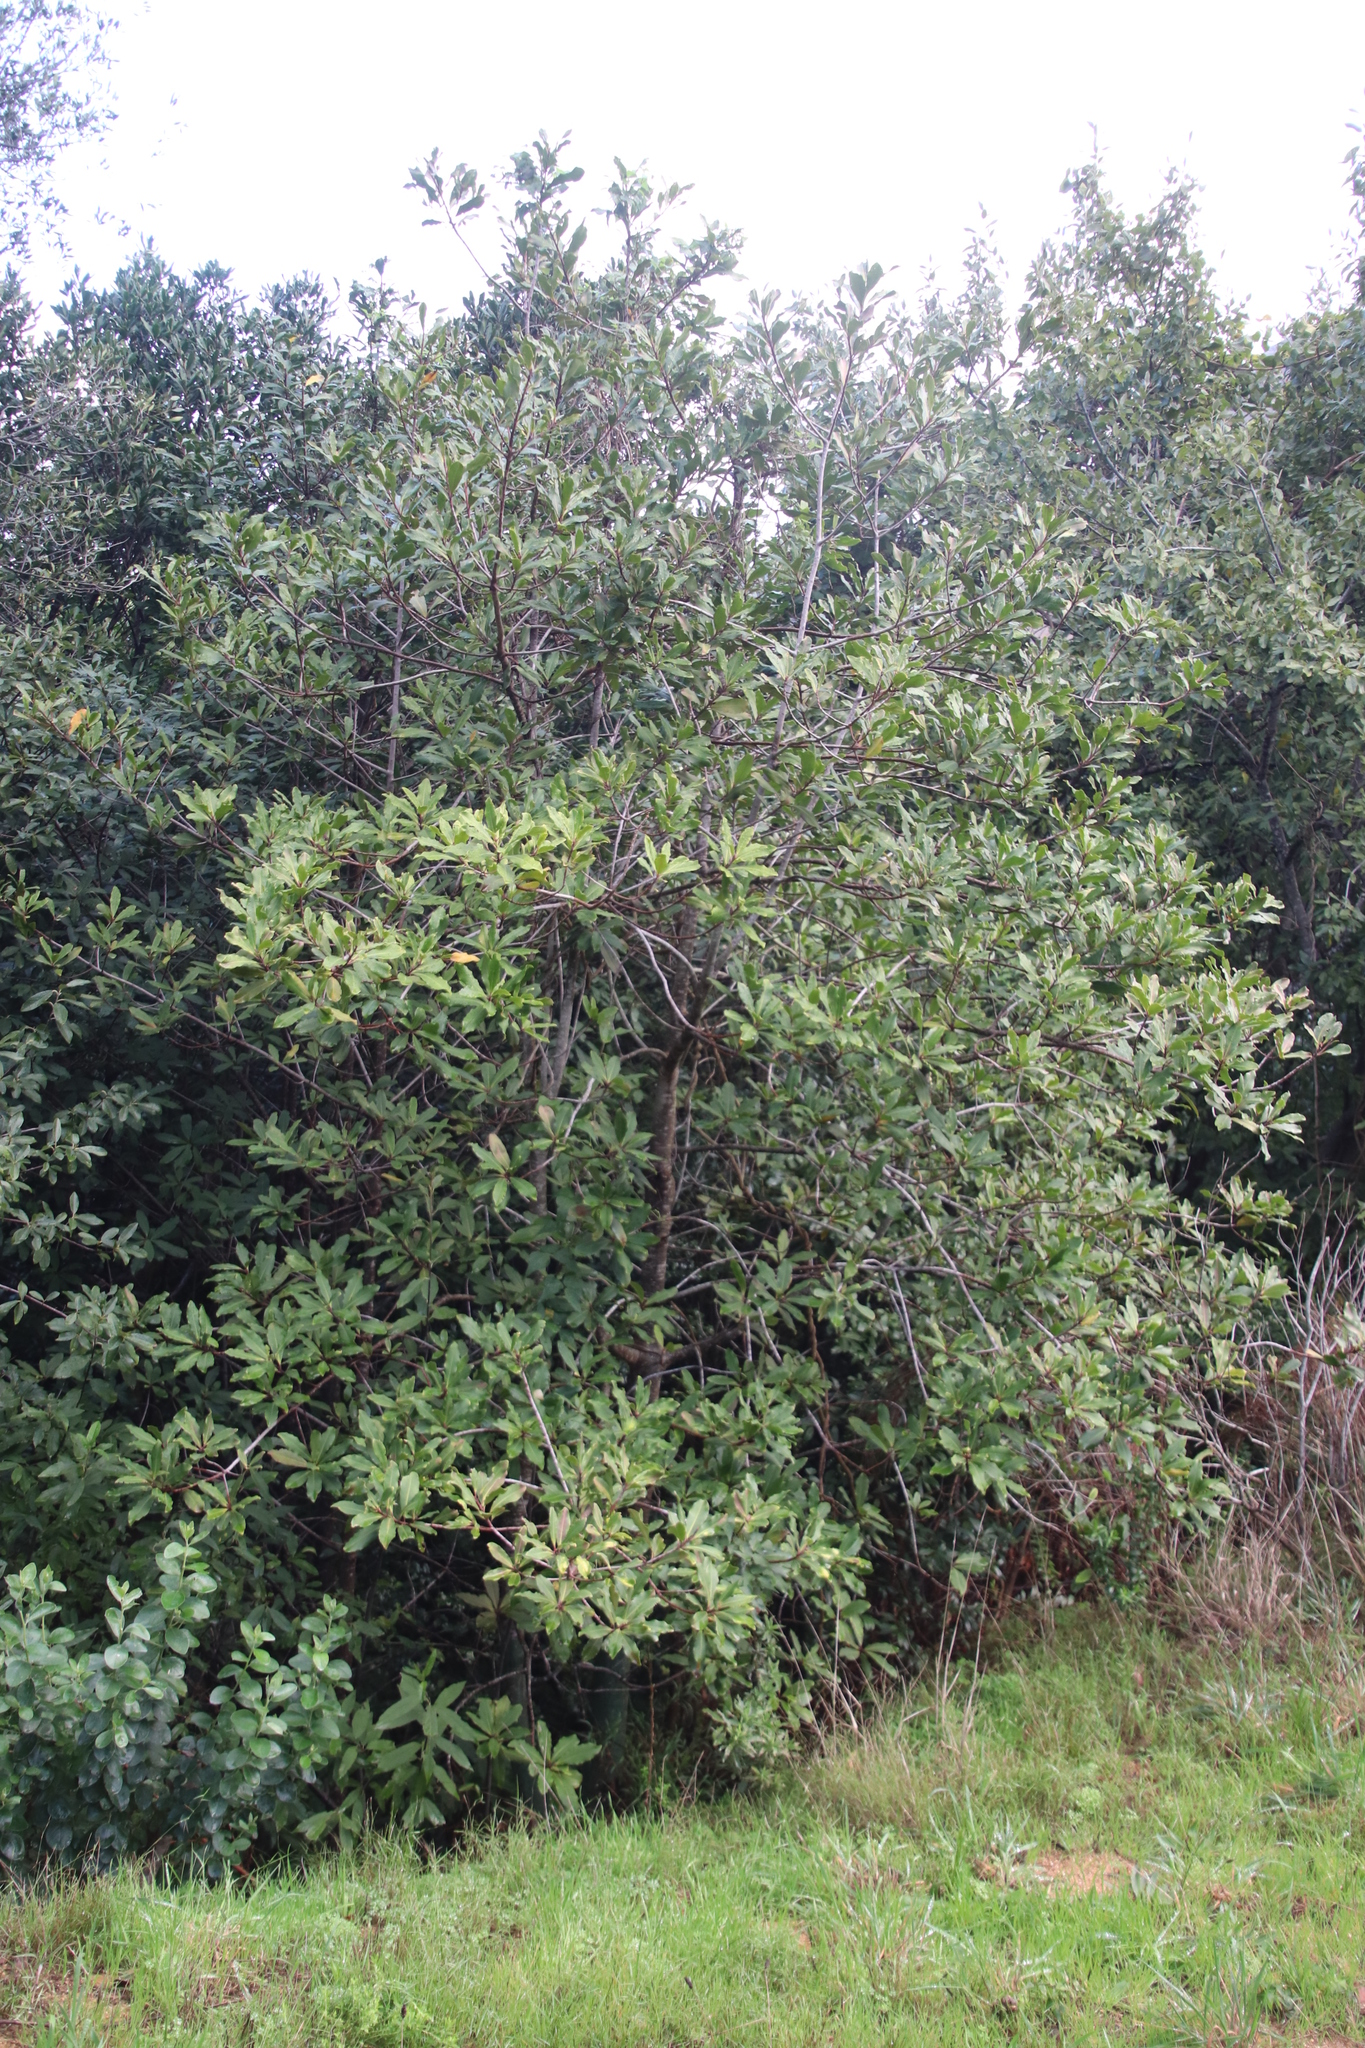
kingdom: Plantae
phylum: Tracheophyta
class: Magnoliopsida
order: Ericales
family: Primulaceae
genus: Myrsine
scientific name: Myrsine melanophloeos
